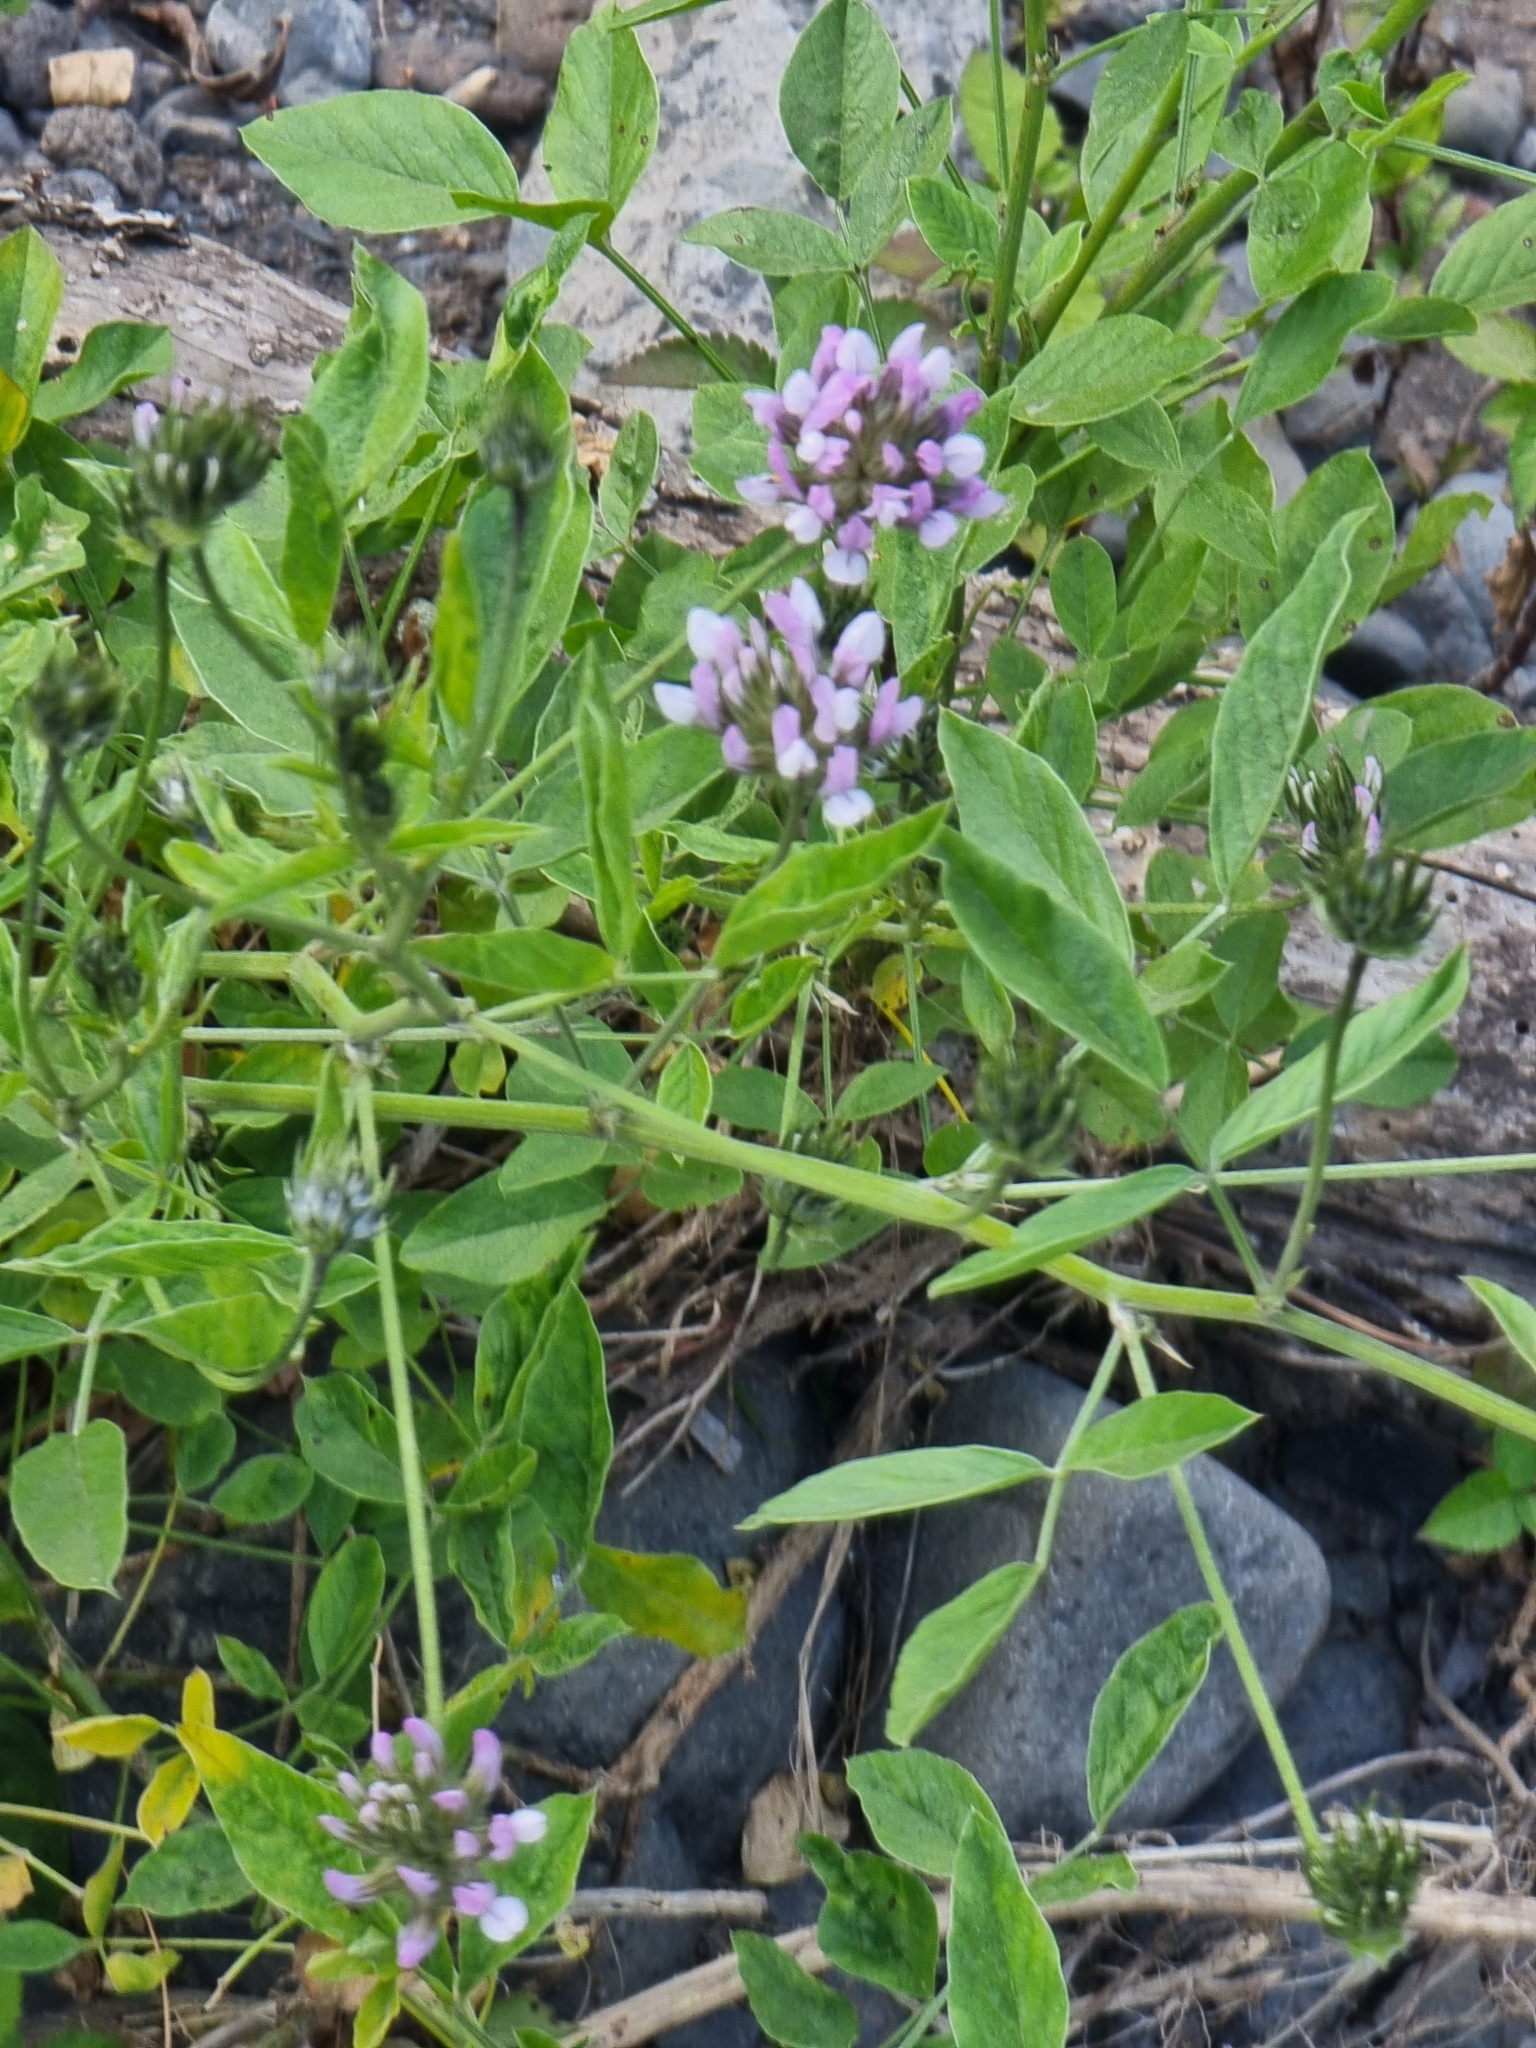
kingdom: Plantae
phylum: Tracheophyta
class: Magnoliopsida
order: Fabales
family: Fabaceae
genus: Bituminaria
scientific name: Bituminaria bituminosa
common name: Arabian pea
